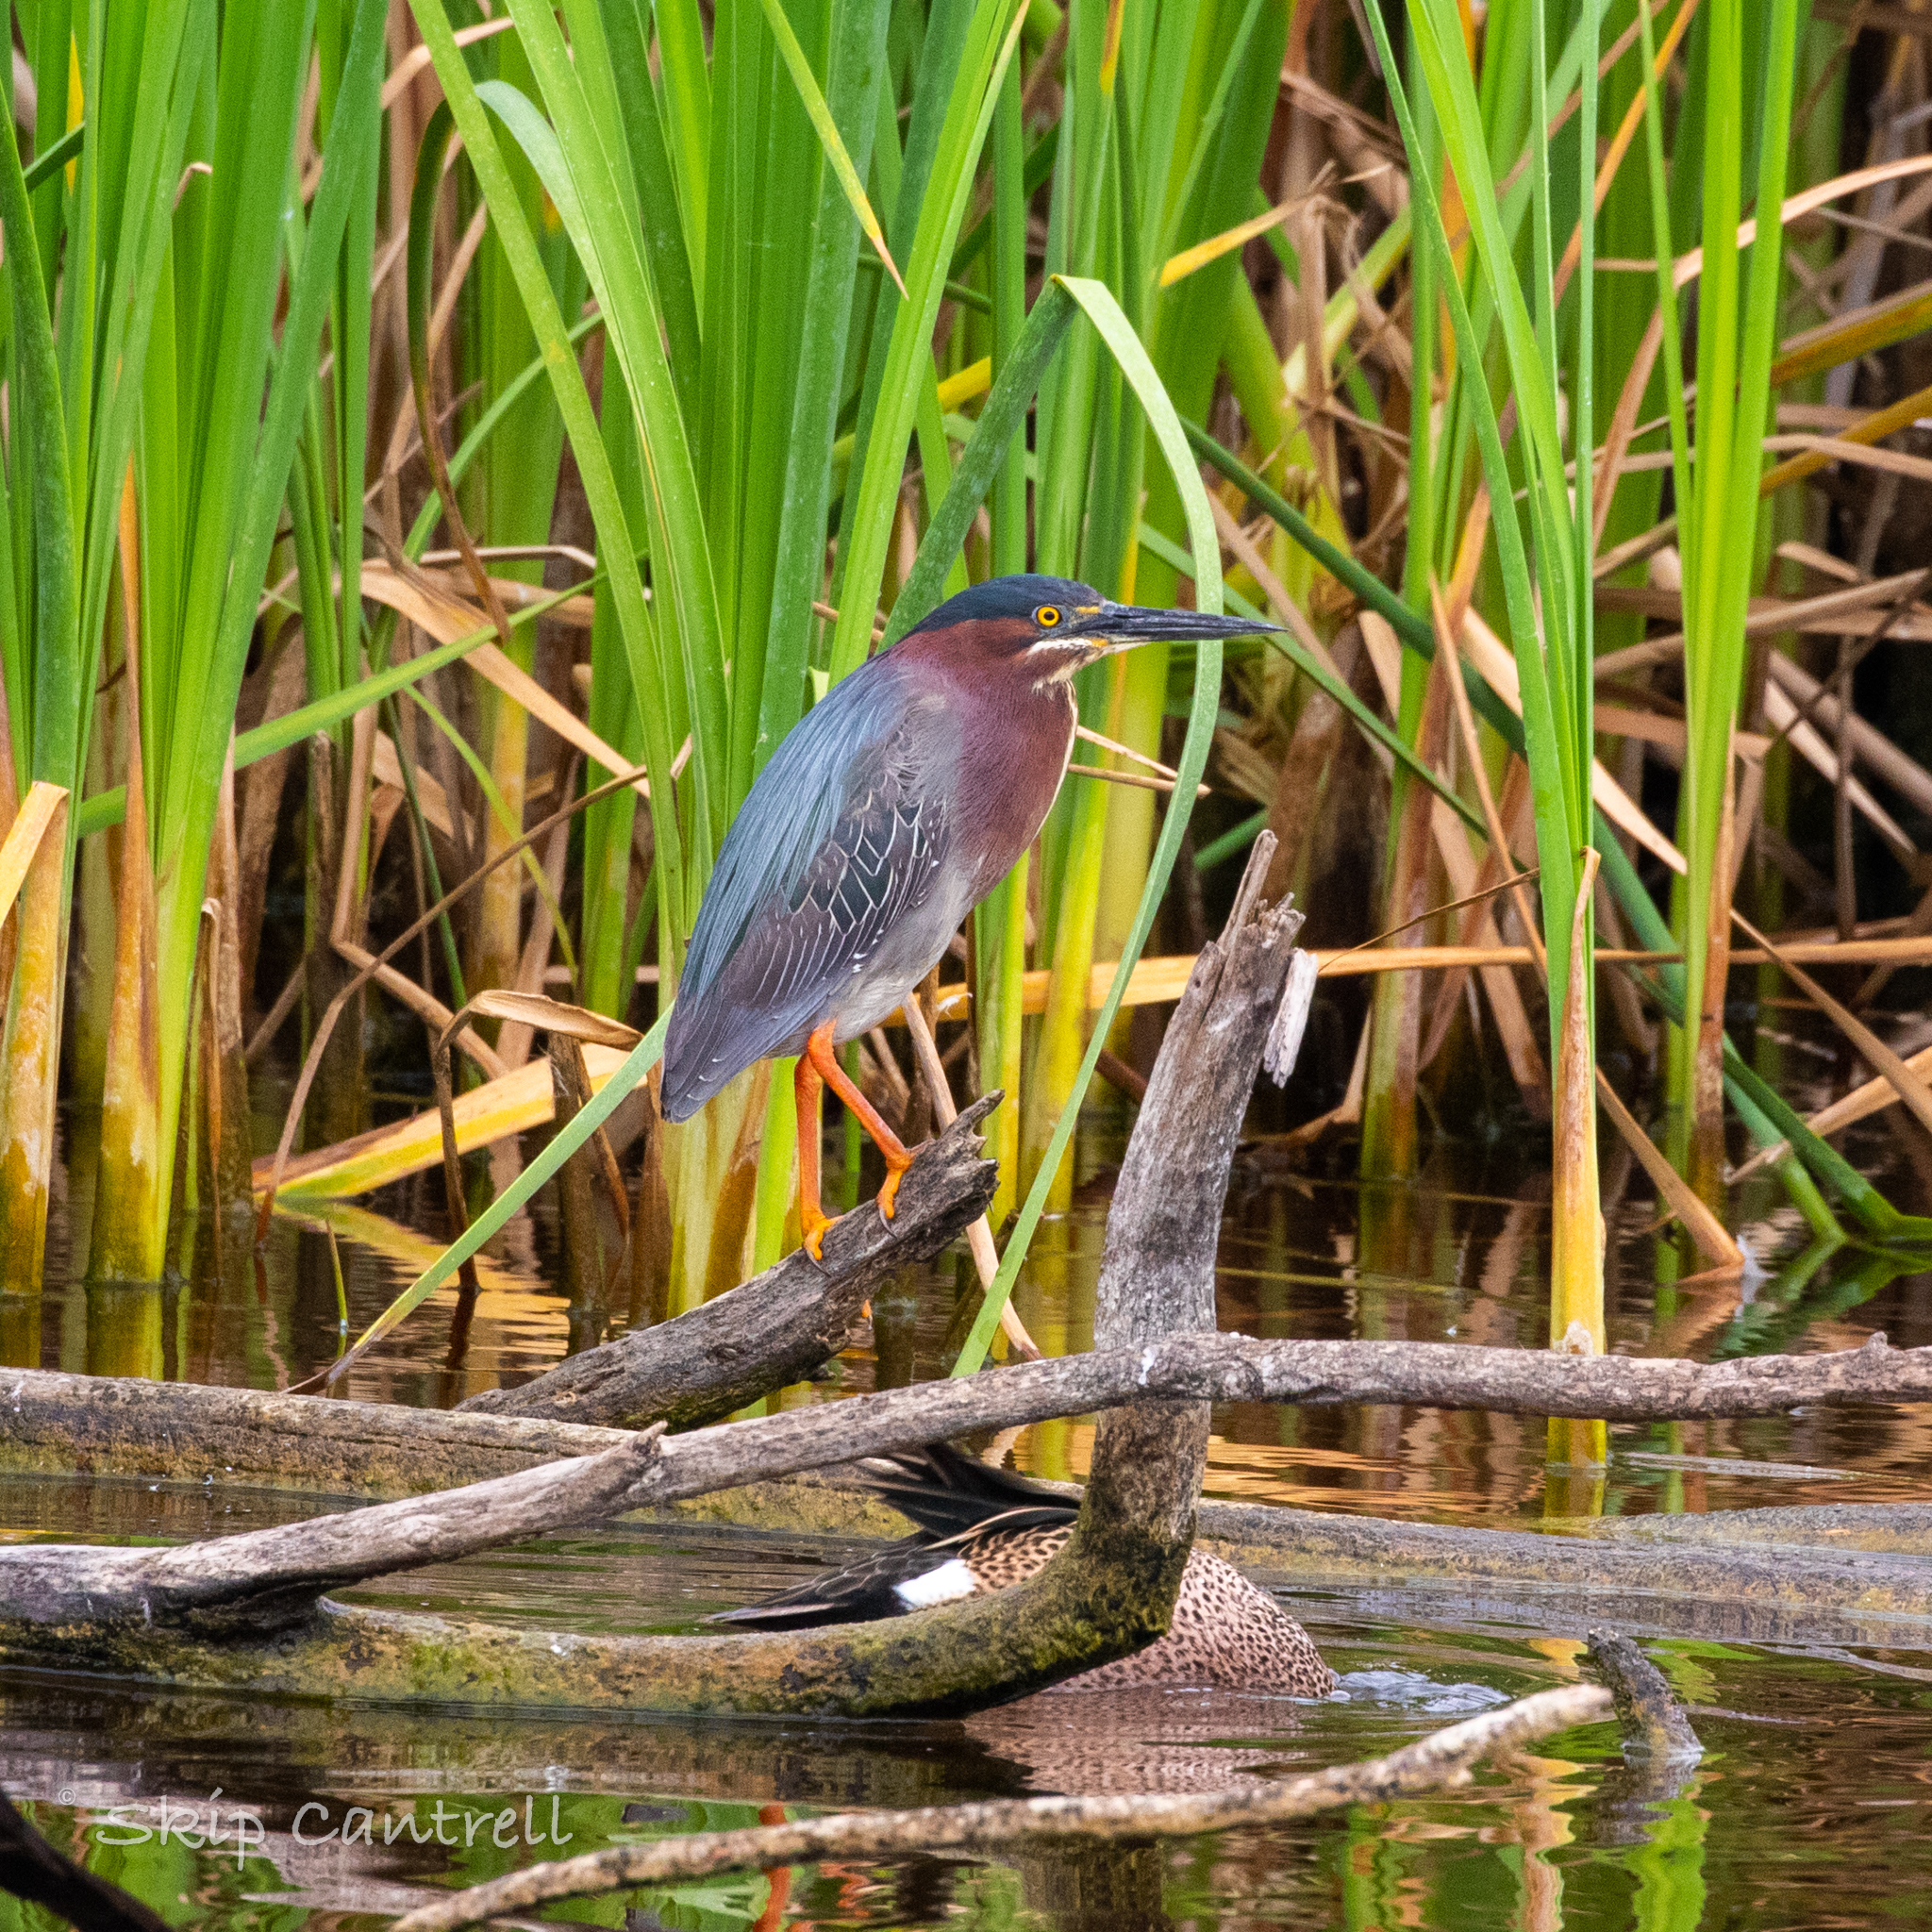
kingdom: Animalia
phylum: Chordata
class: Aves
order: Pelecaniformes
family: Ardeidae
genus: Butorides
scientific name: Butorides virescens
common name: Green heron
